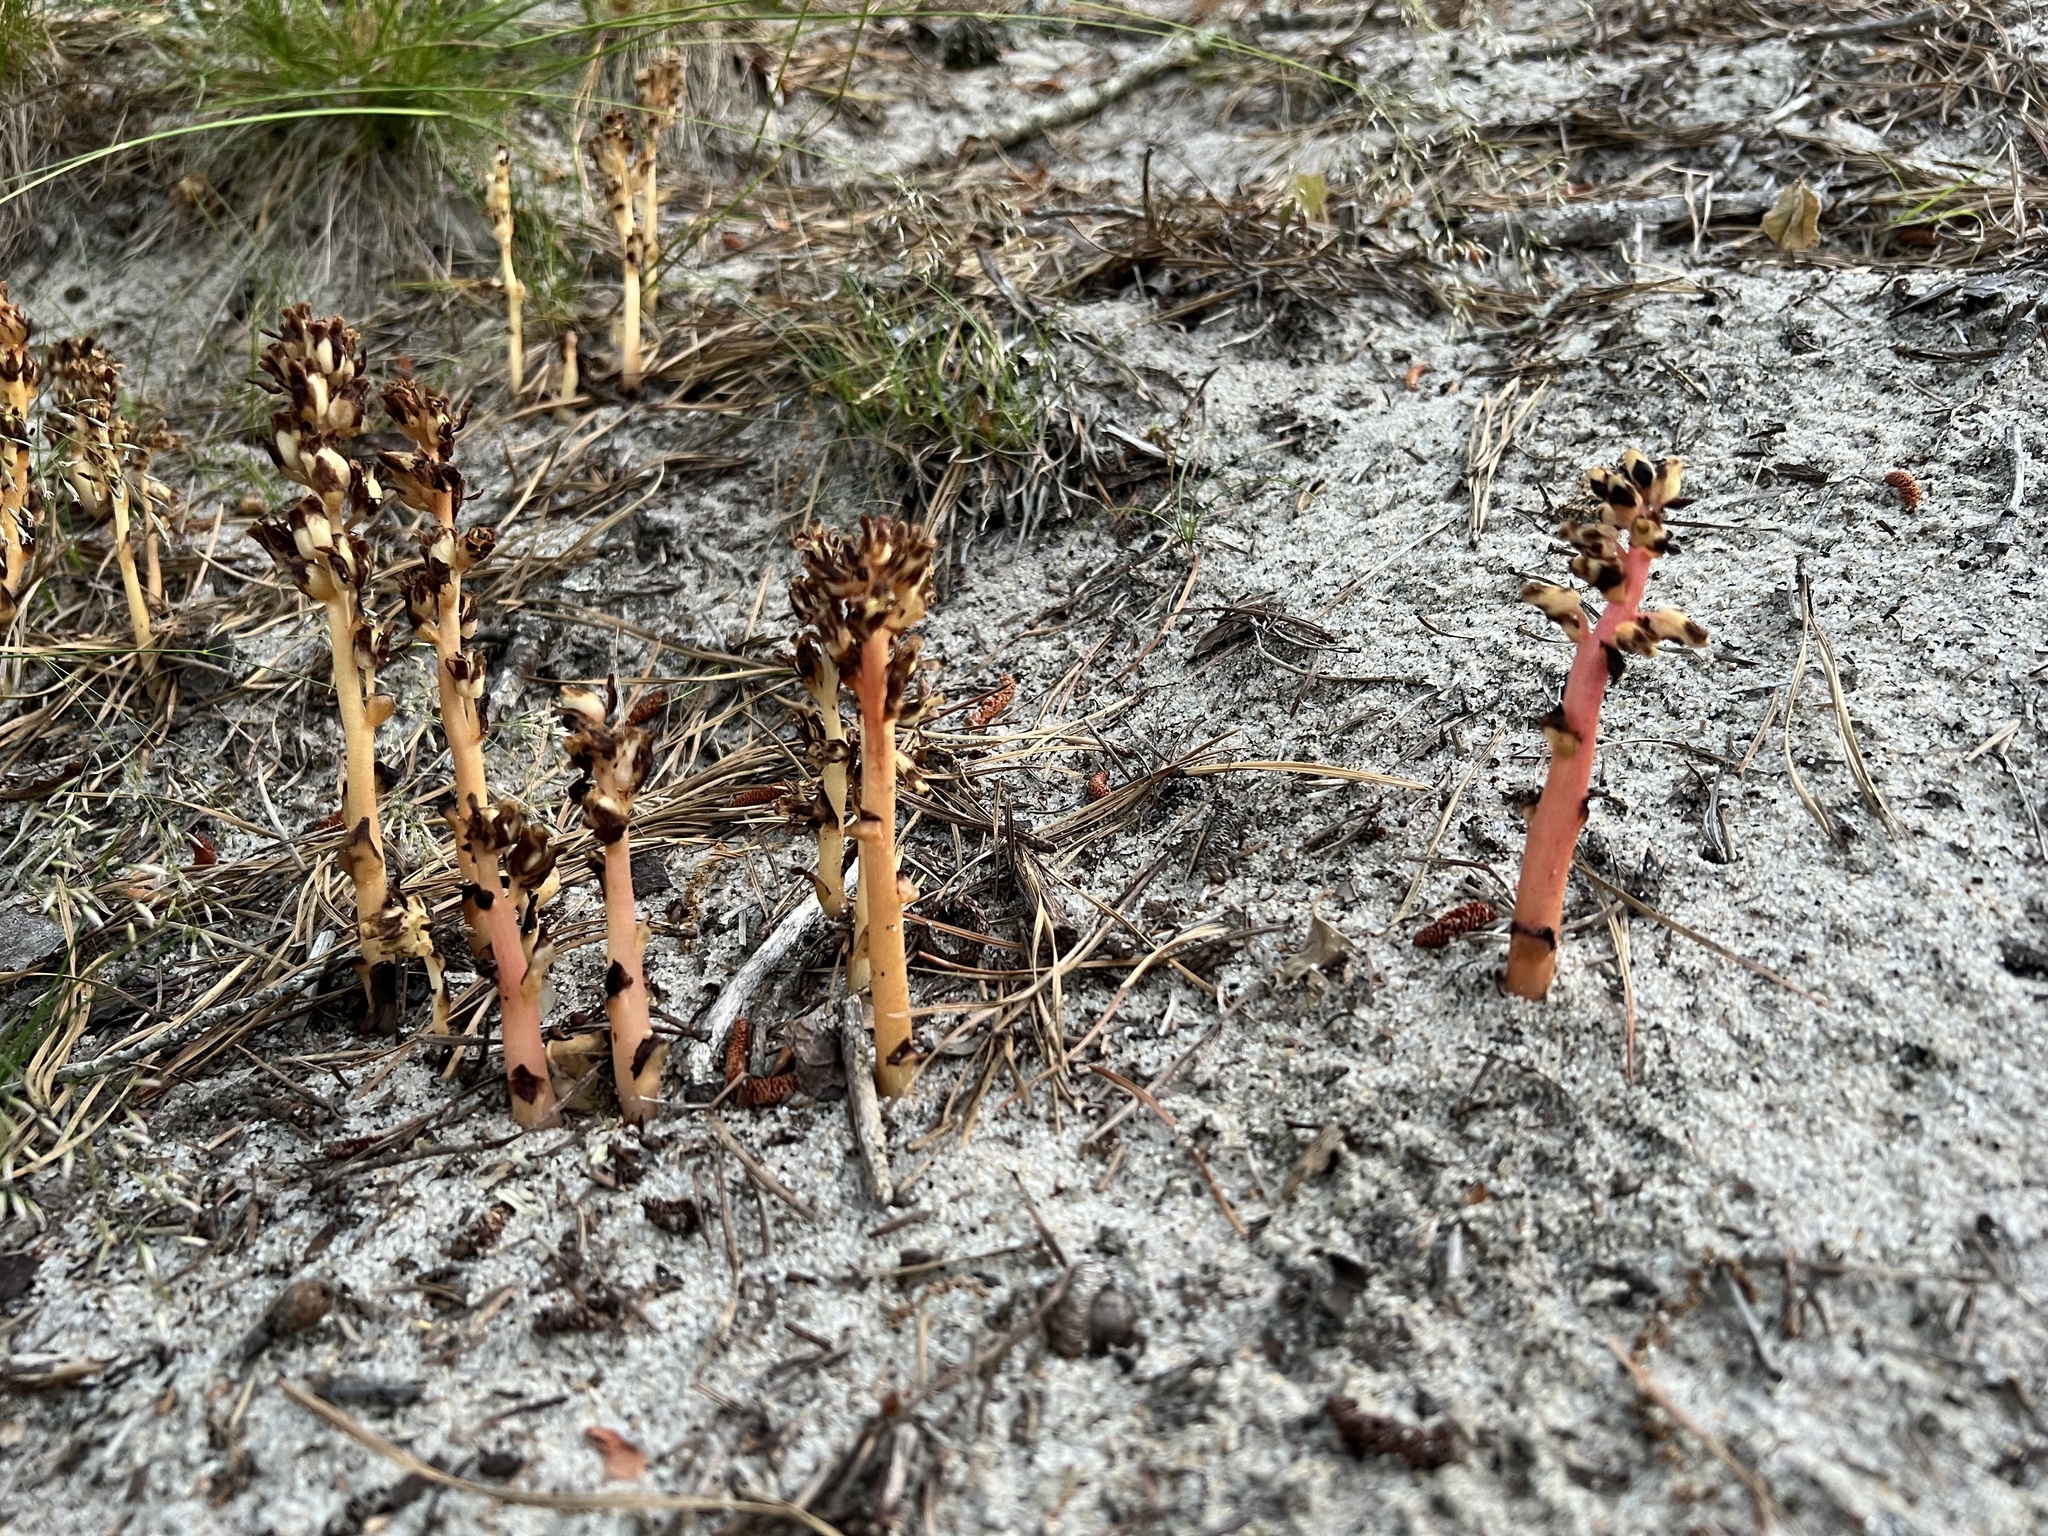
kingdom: Plantae
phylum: Tracheophyta
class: Magnoliopsida
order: Ericales
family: Ericaceae
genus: Hypopitys
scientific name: Hypopitys monotropa
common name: Yellow bird's-nest
